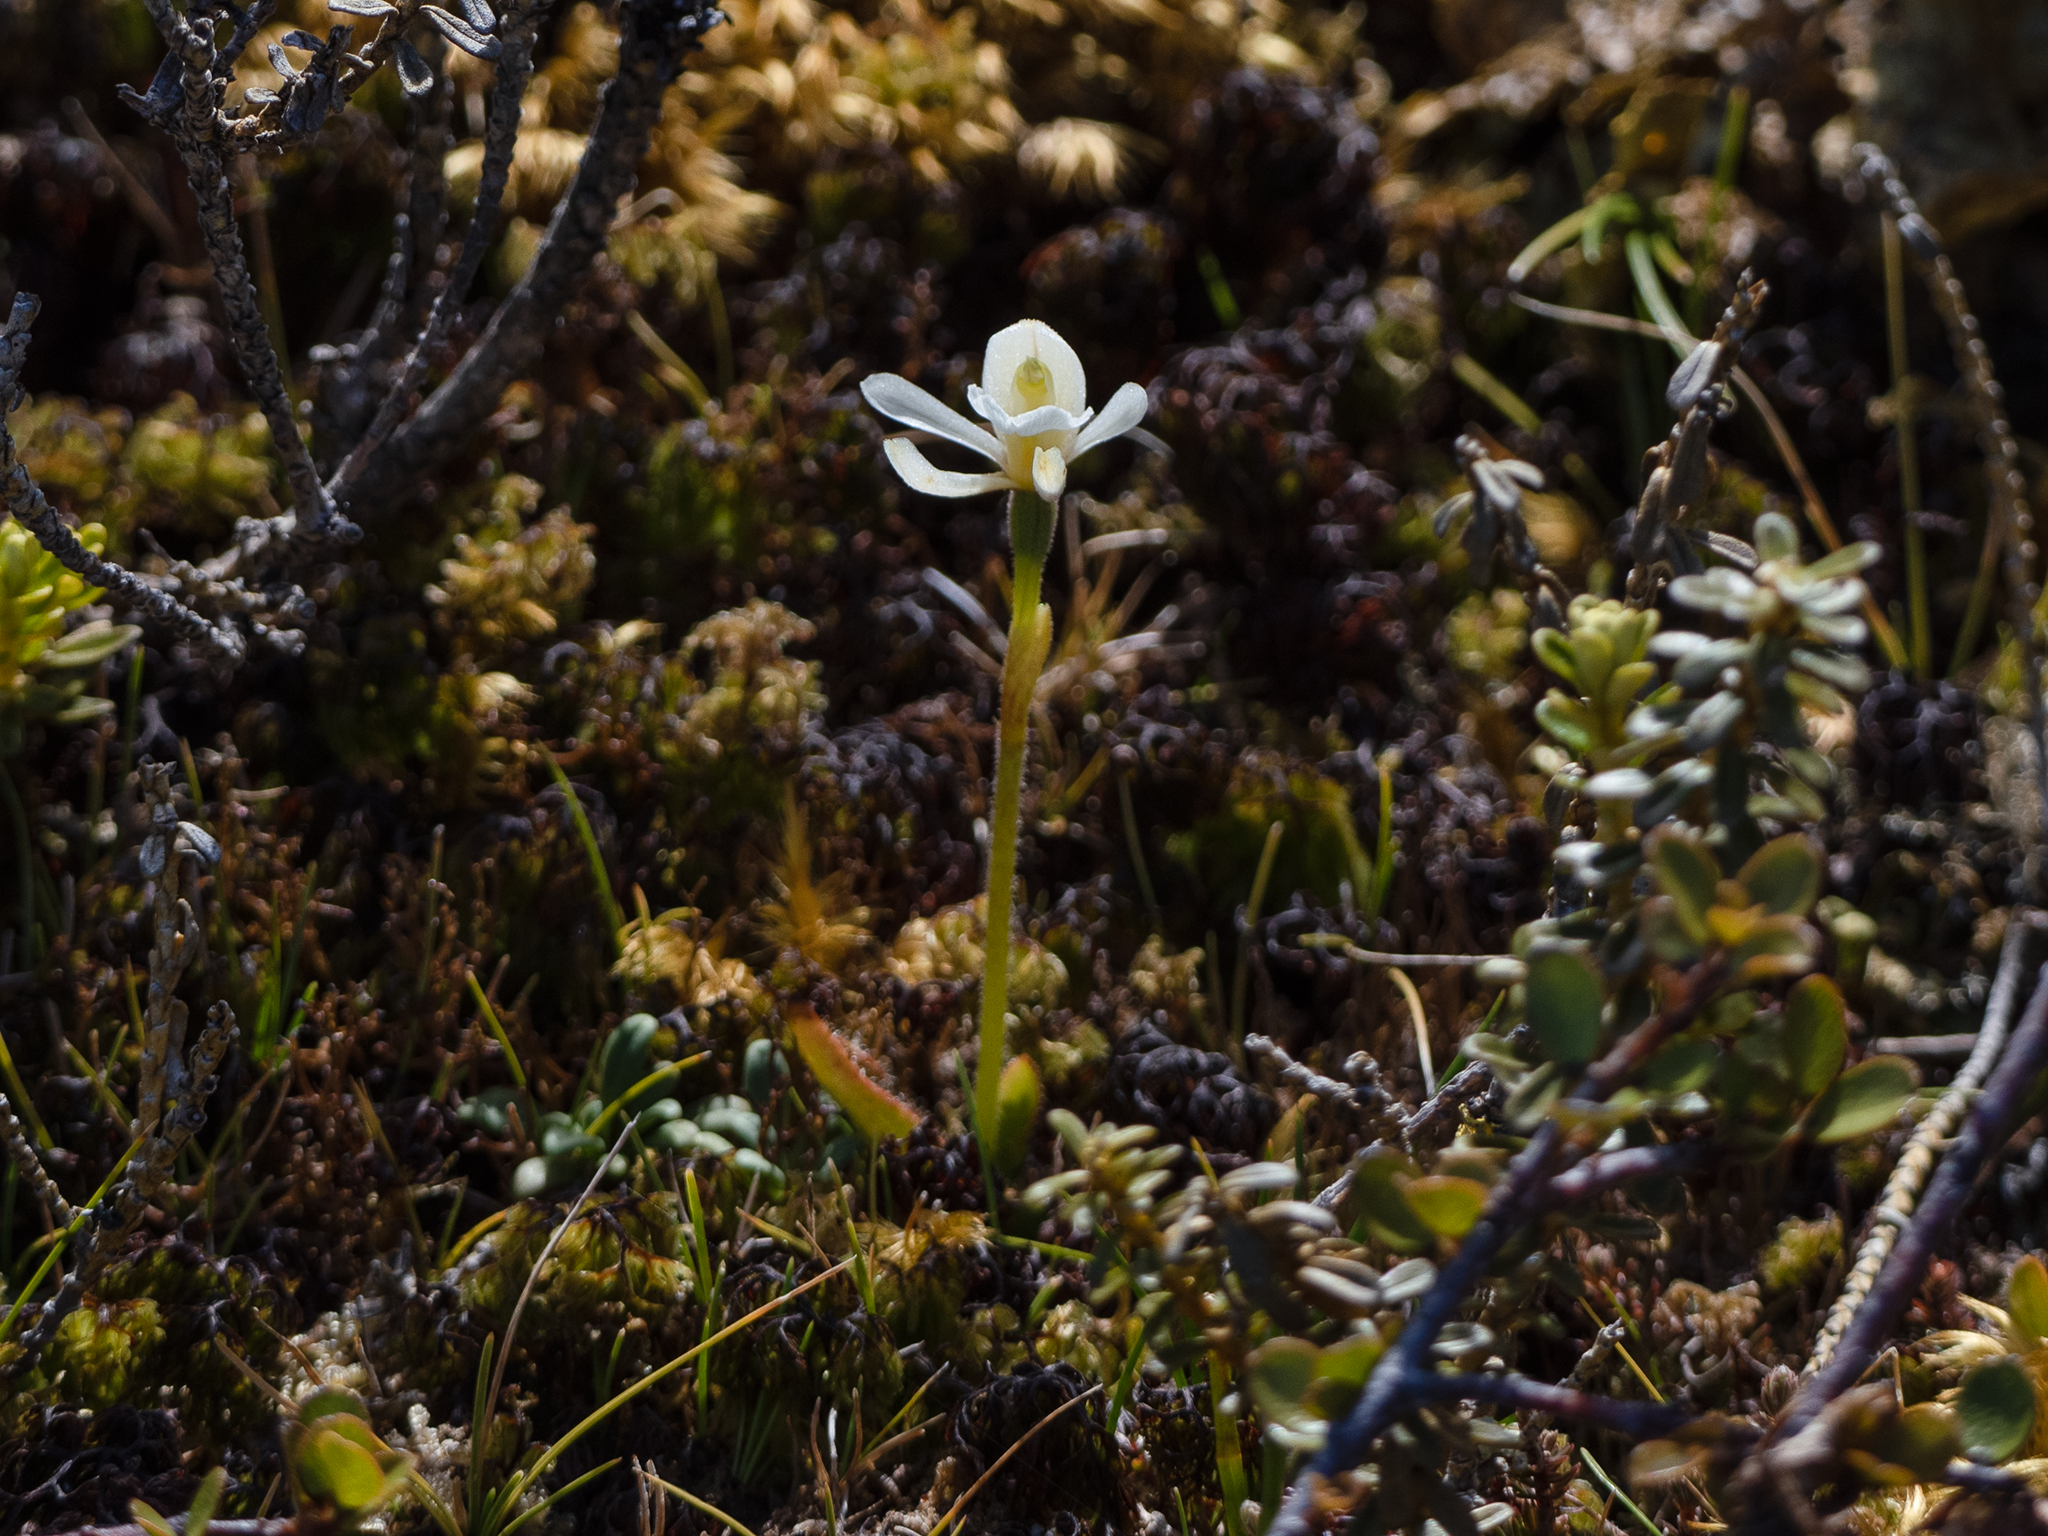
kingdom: Plantae
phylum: Tracheophyta
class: Liliopsida
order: Asparagales
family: Orchidaceae
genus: Aporostylis
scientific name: Aporostylis bifolia
